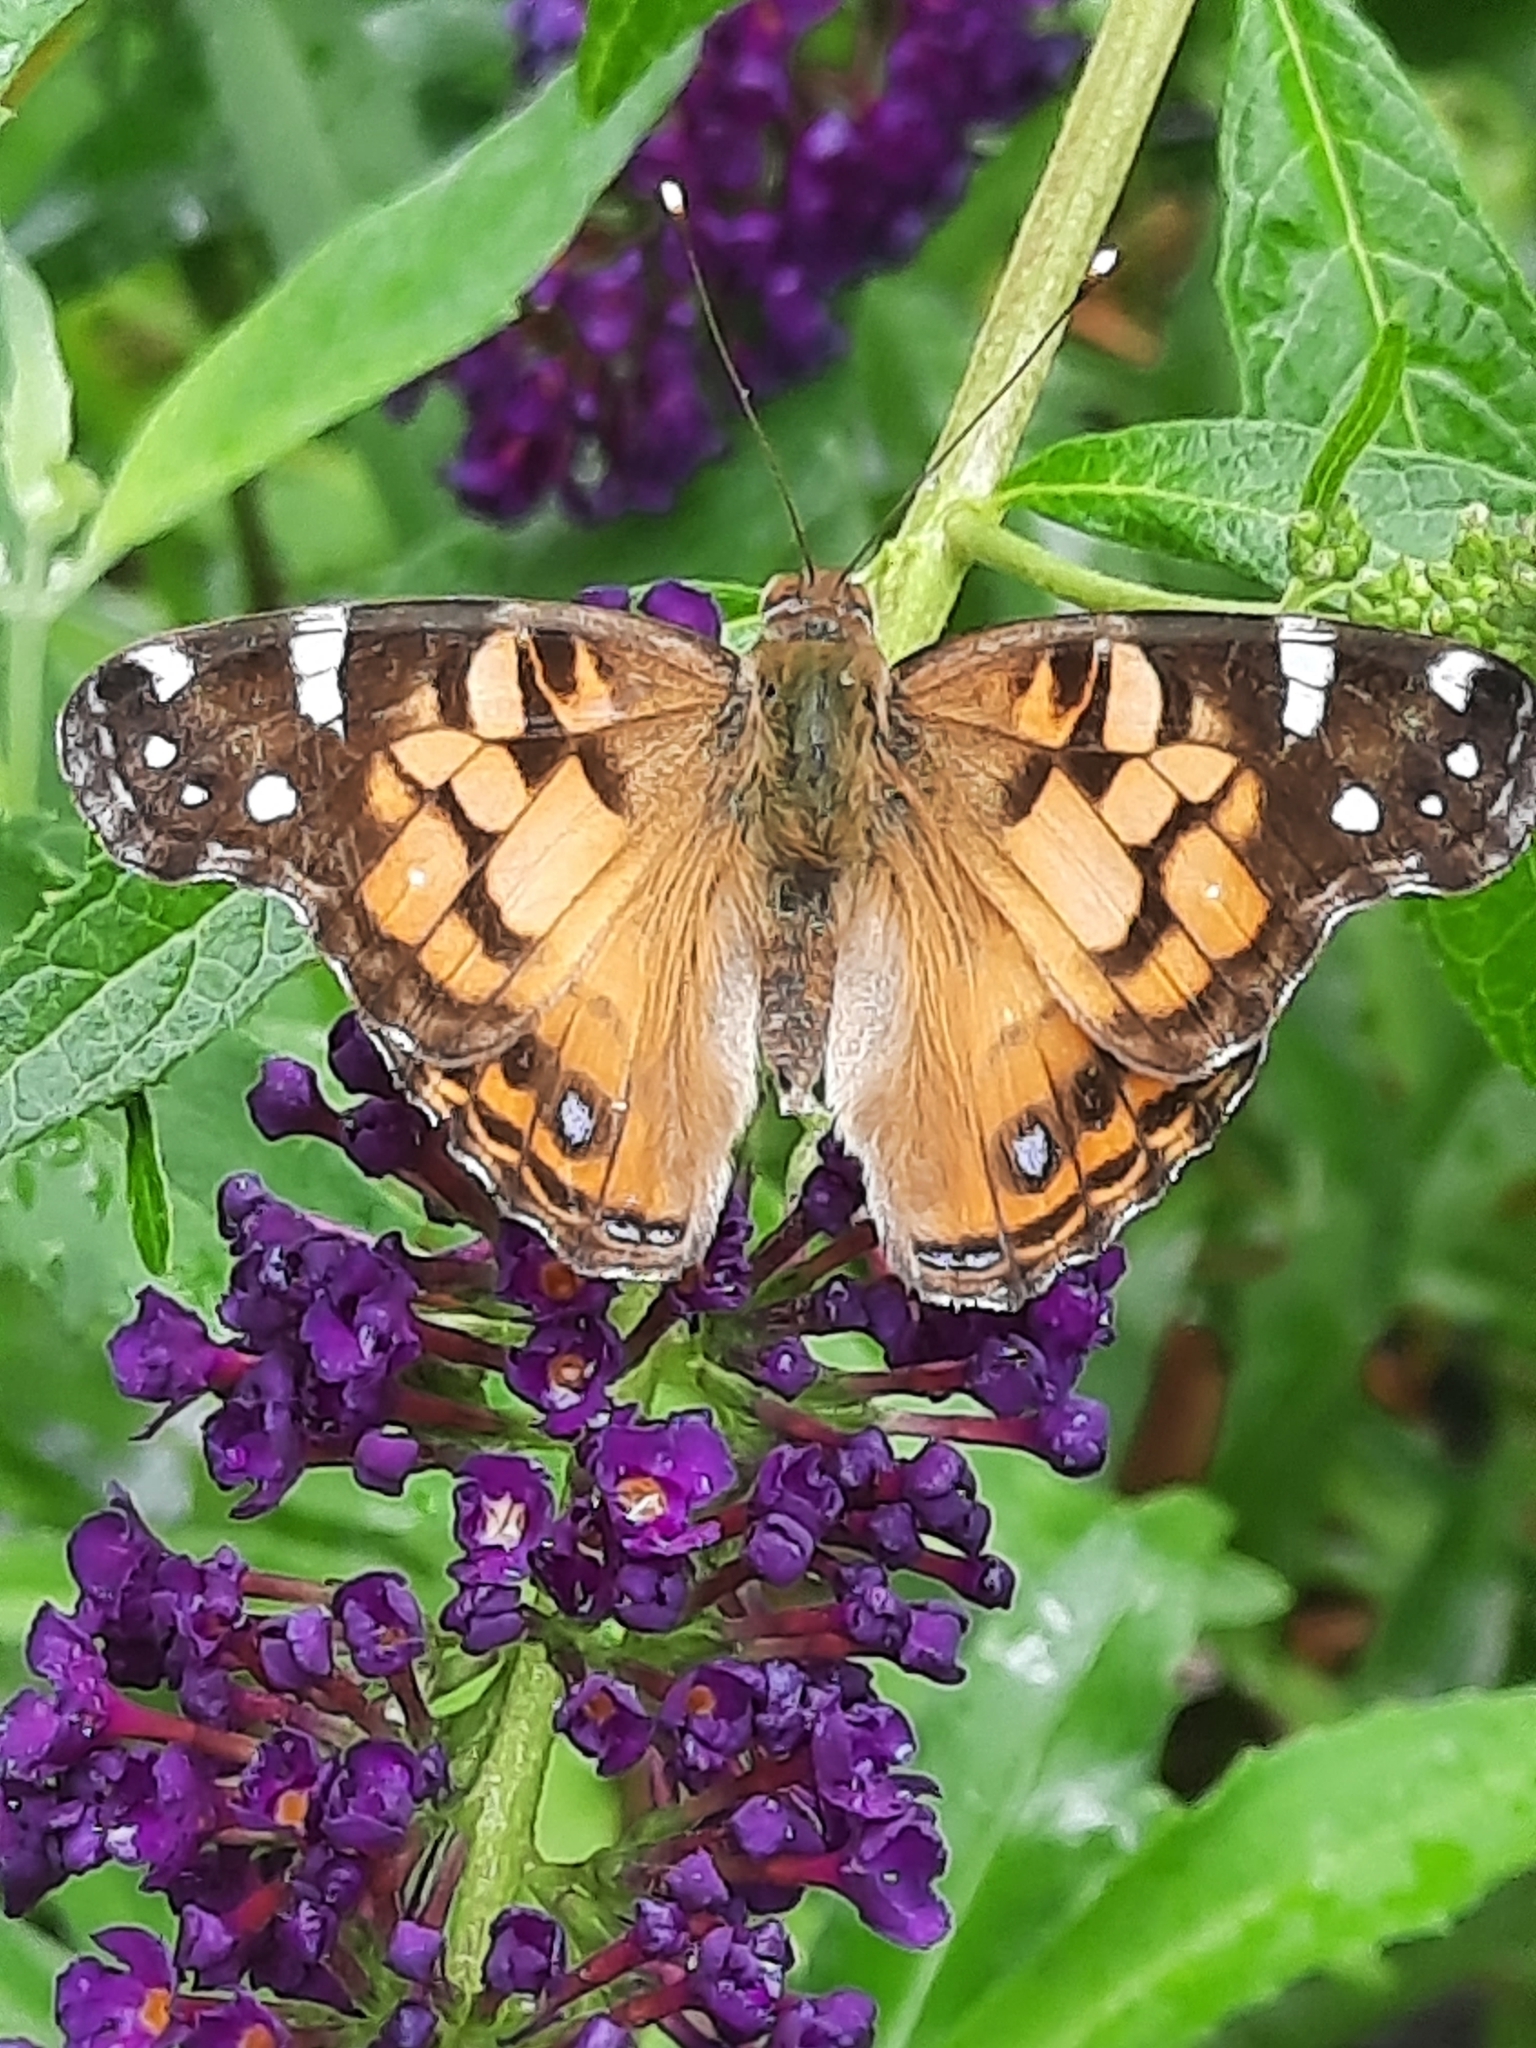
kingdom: Animalia
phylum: Arthropoda
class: Insecta
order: Lepidoptera
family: Nymphalidae
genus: Vanessa
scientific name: Vanessa virginiensis
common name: American lady
